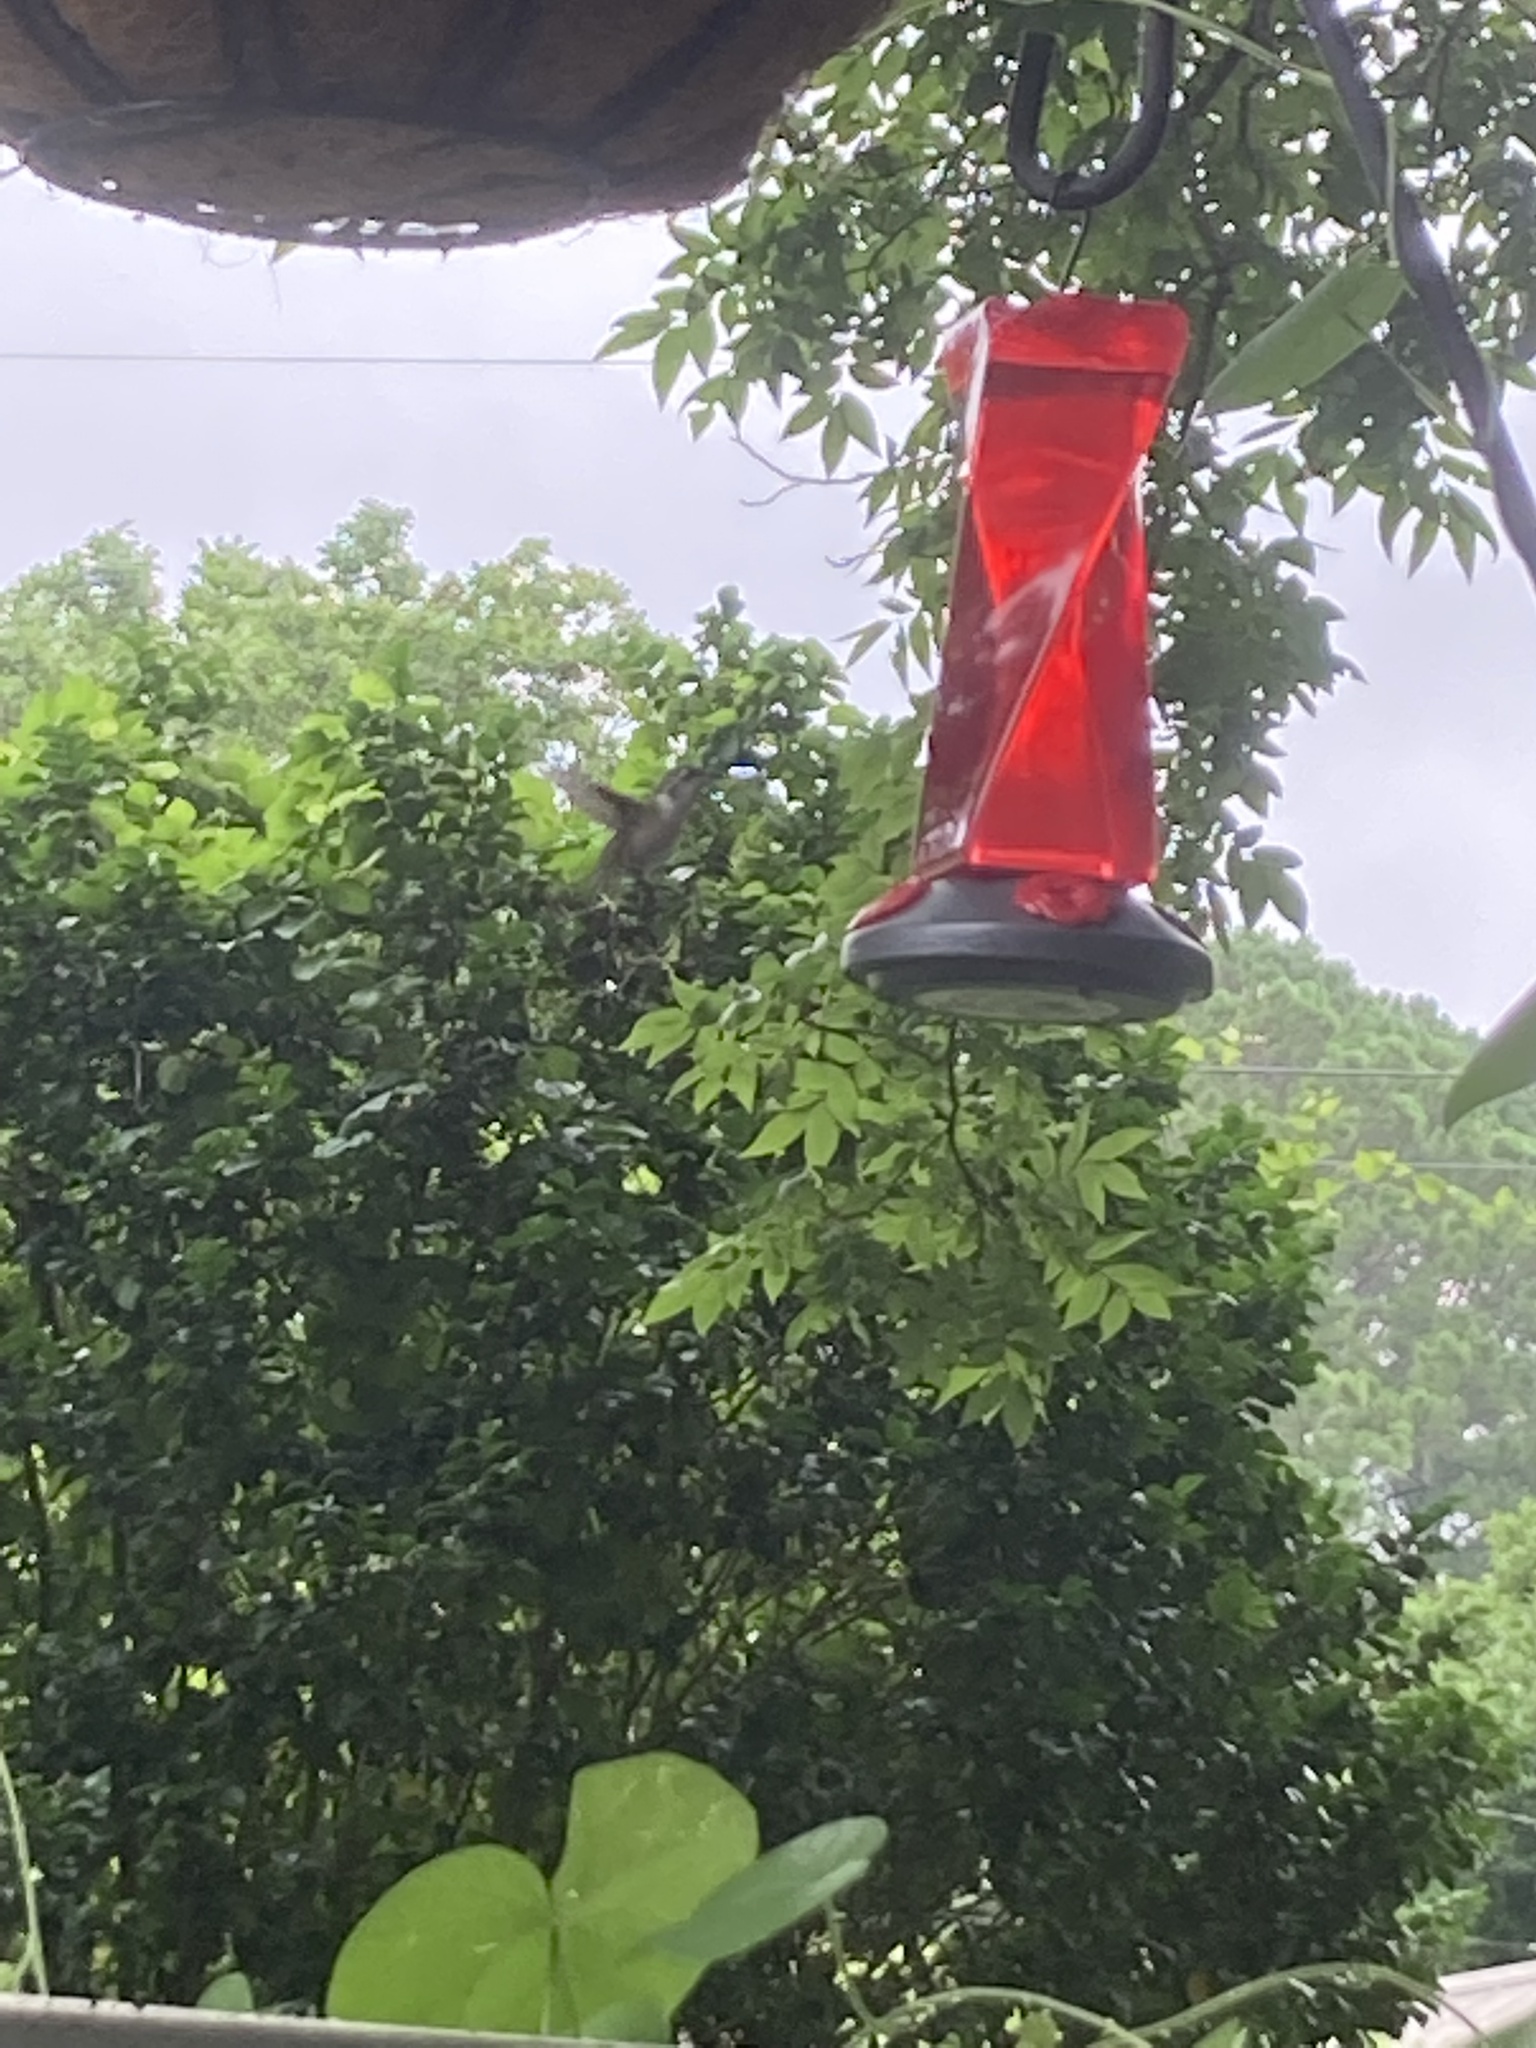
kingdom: Animalia
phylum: Chordata
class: Aves
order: Apodiformes
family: Trochilidae
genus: Archilochus
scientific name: Archilochus colubris
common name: Ruby-throated hummingbird
